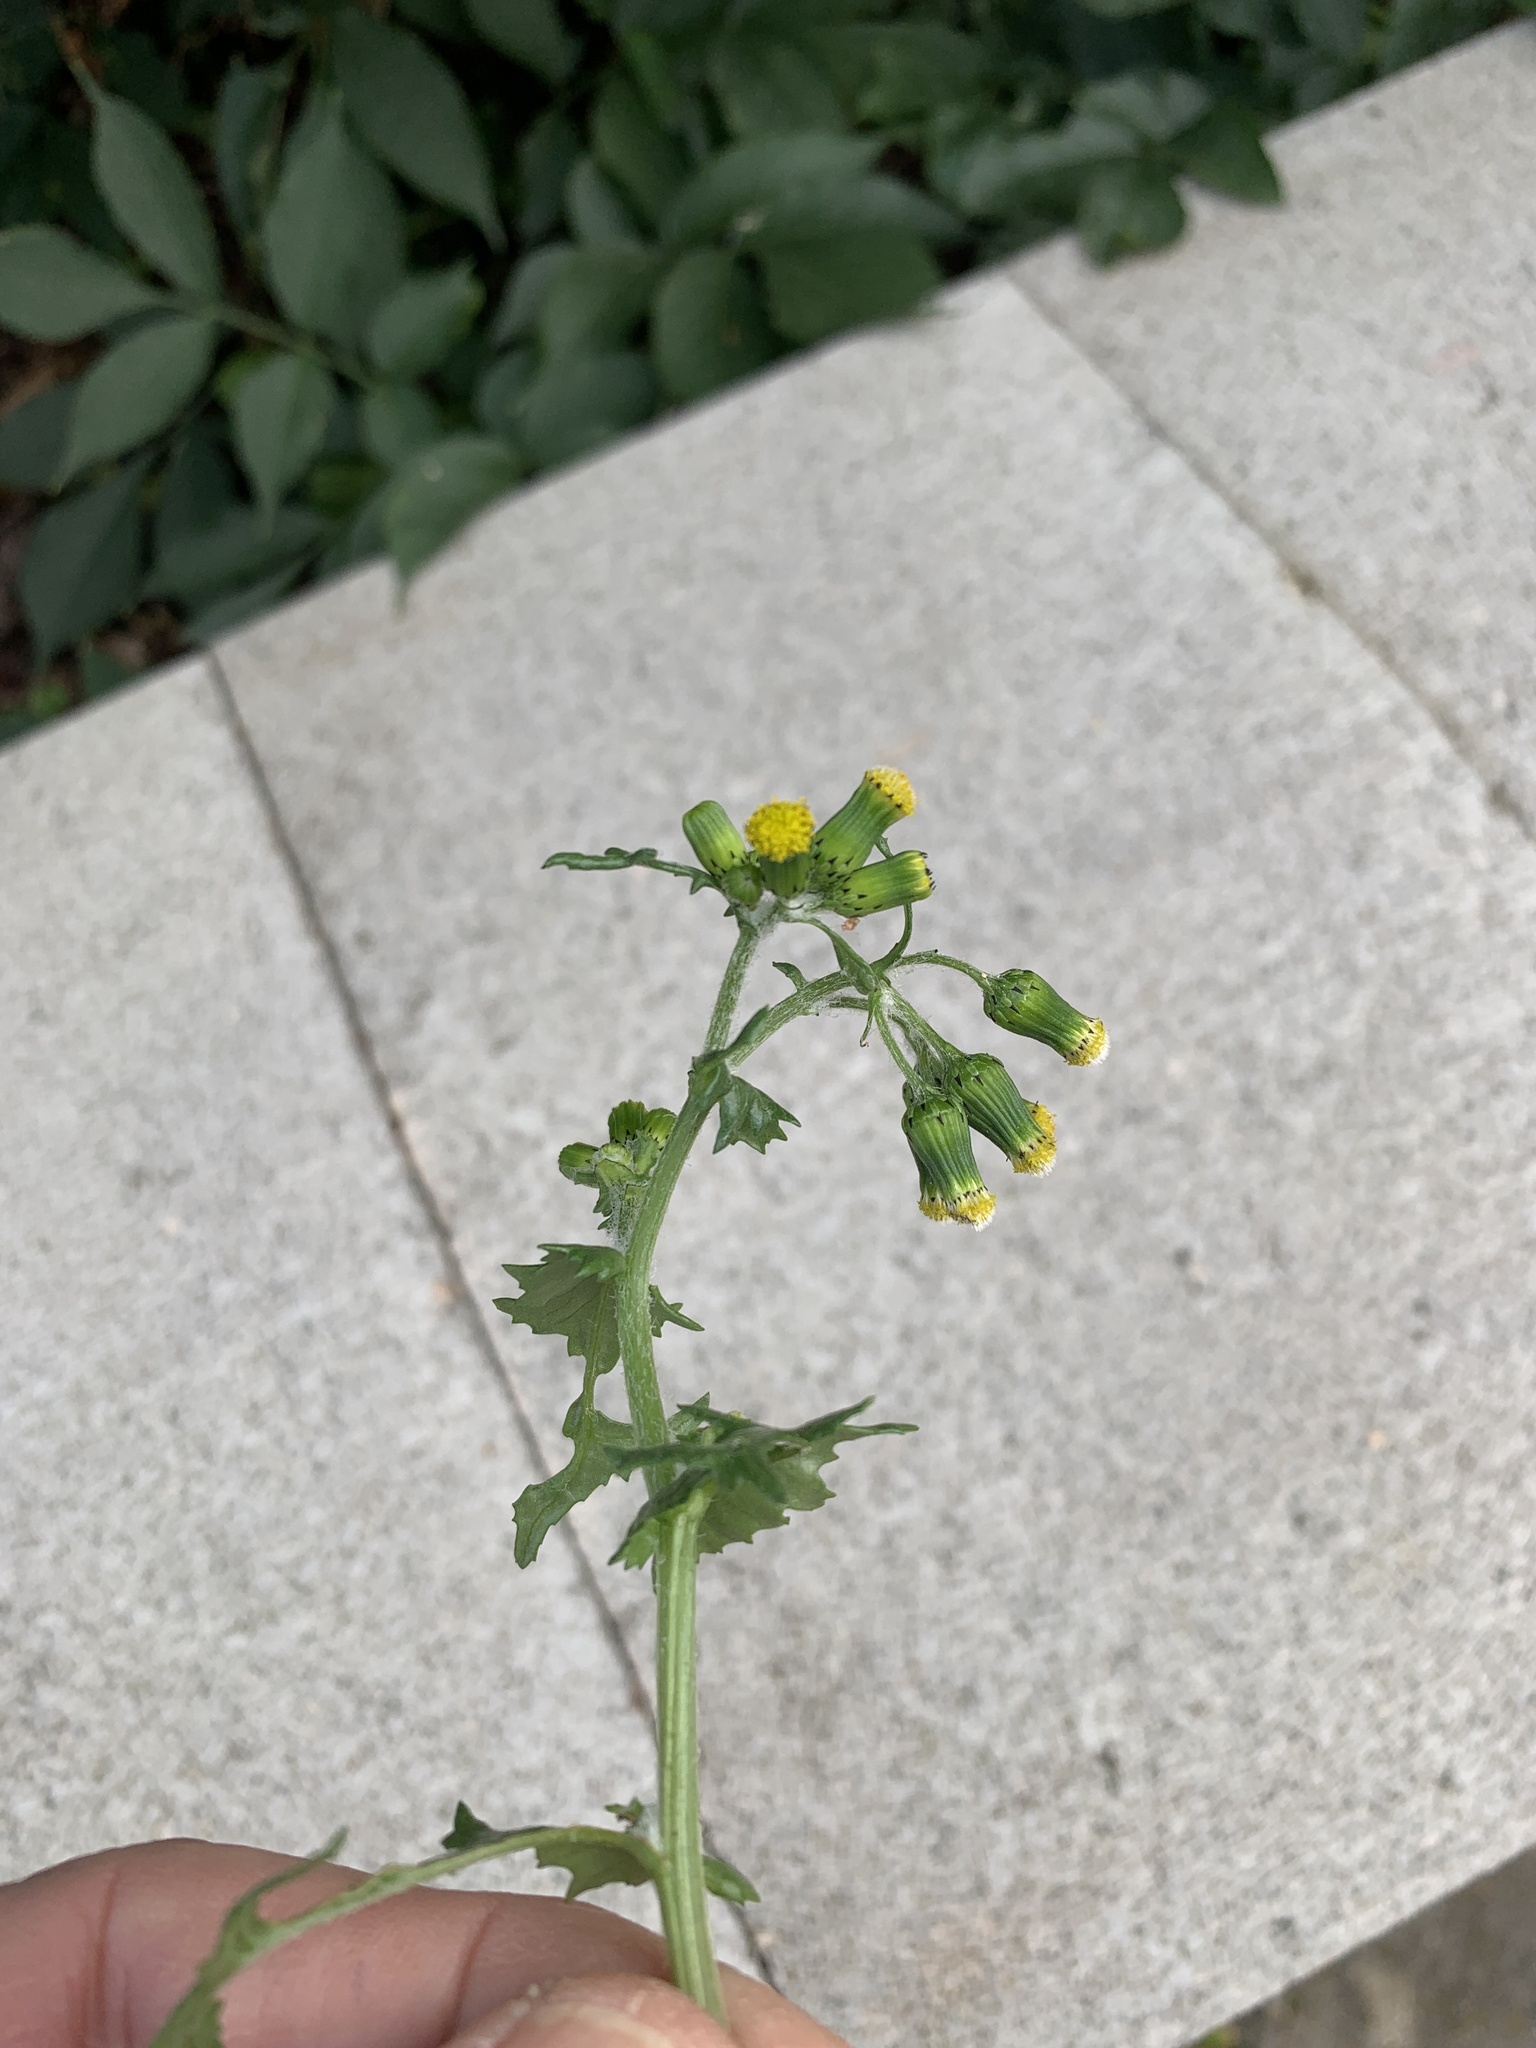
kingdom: Plantae
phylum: Tracheophyta
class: Magnoliopsida
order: Asterales
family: Asteraceae
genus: Senecio
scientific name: Senecio vulgaris
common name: Old-man-in-the-spring
